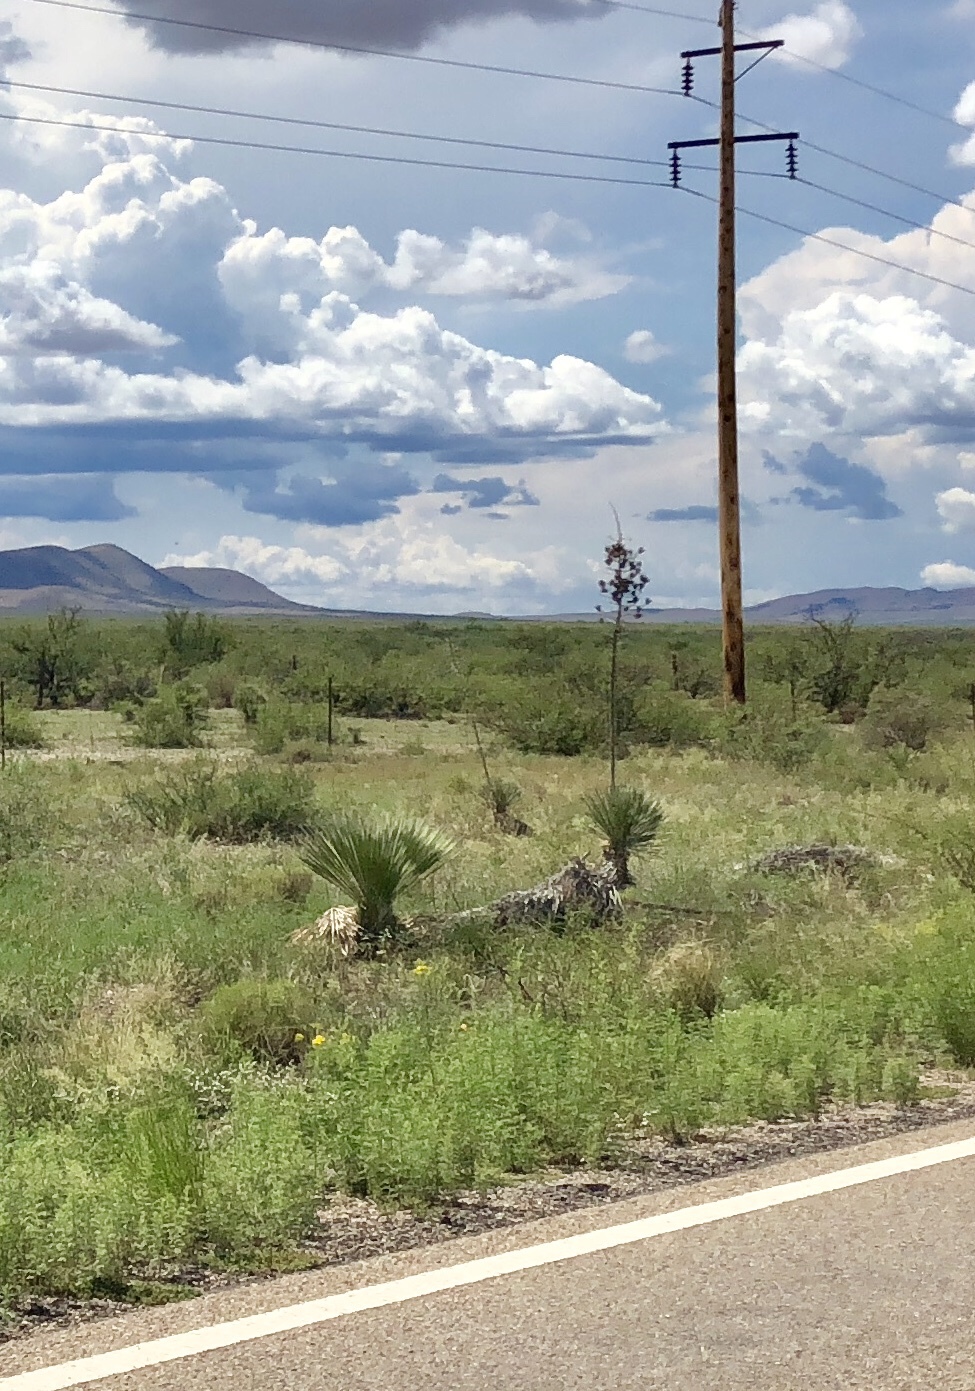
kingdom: Plantae
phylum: Tracheophyta
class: Liliopsida
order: Asparagales
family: Asparagaceae
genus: Yucca
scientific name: Yucca elata
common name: Palmella
